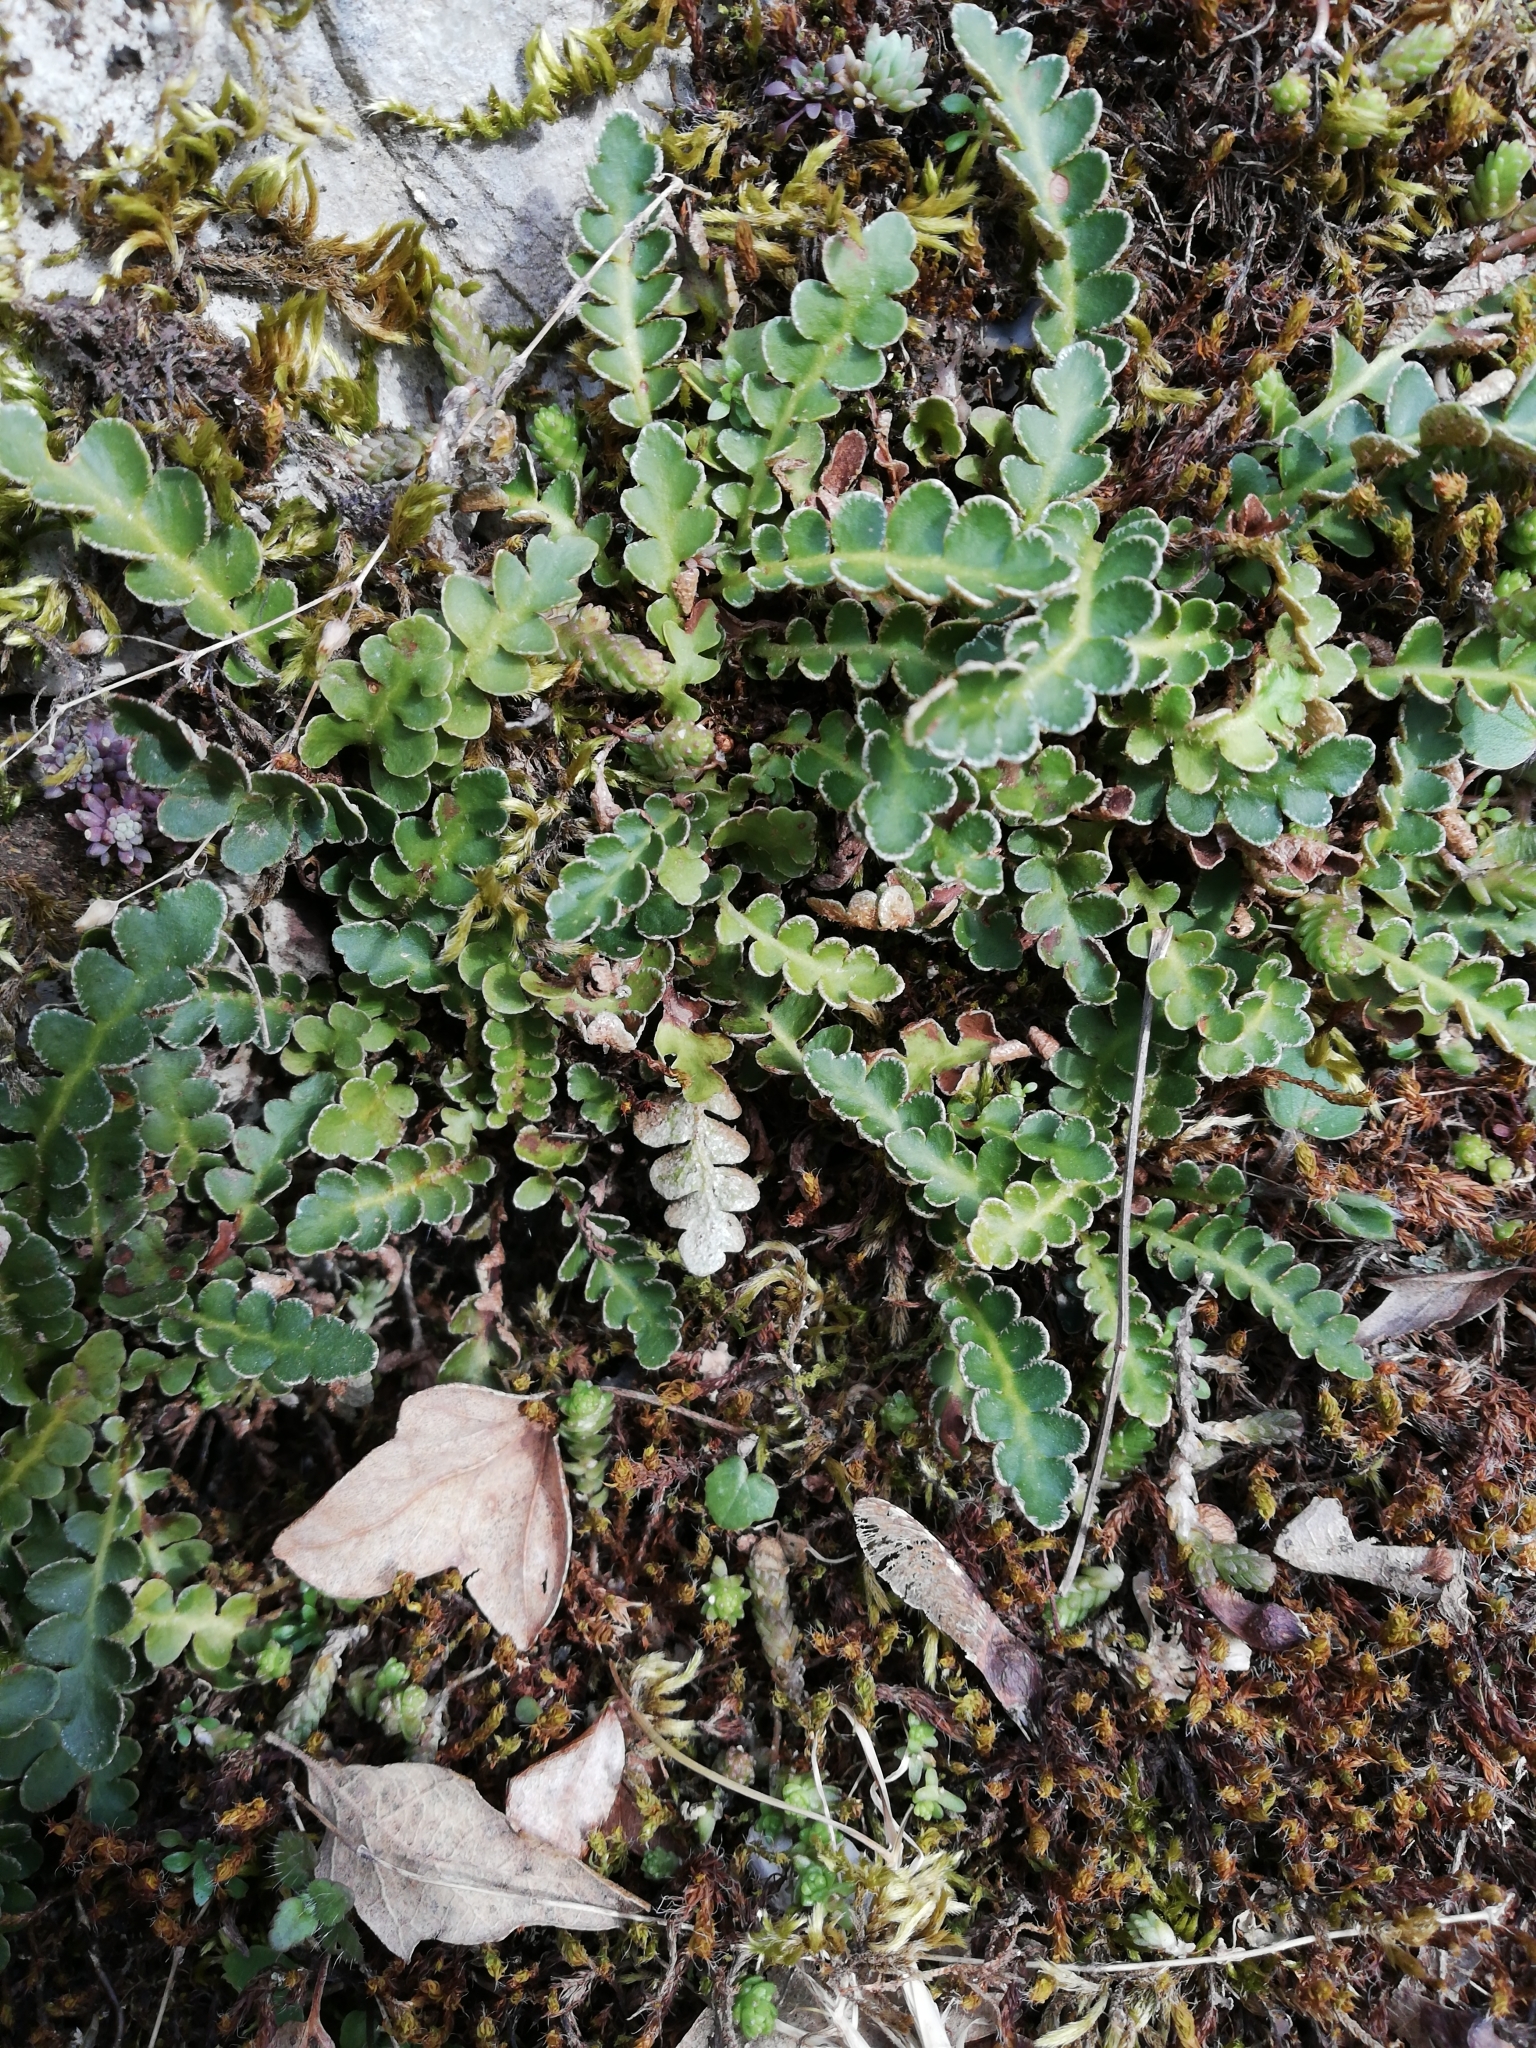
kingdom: Plantae
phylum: Tracheophyta
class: Polypodiopsida
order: Polypodiales
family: Aspleniaceae
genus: Asplenium
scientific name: Asplenium ceterach
